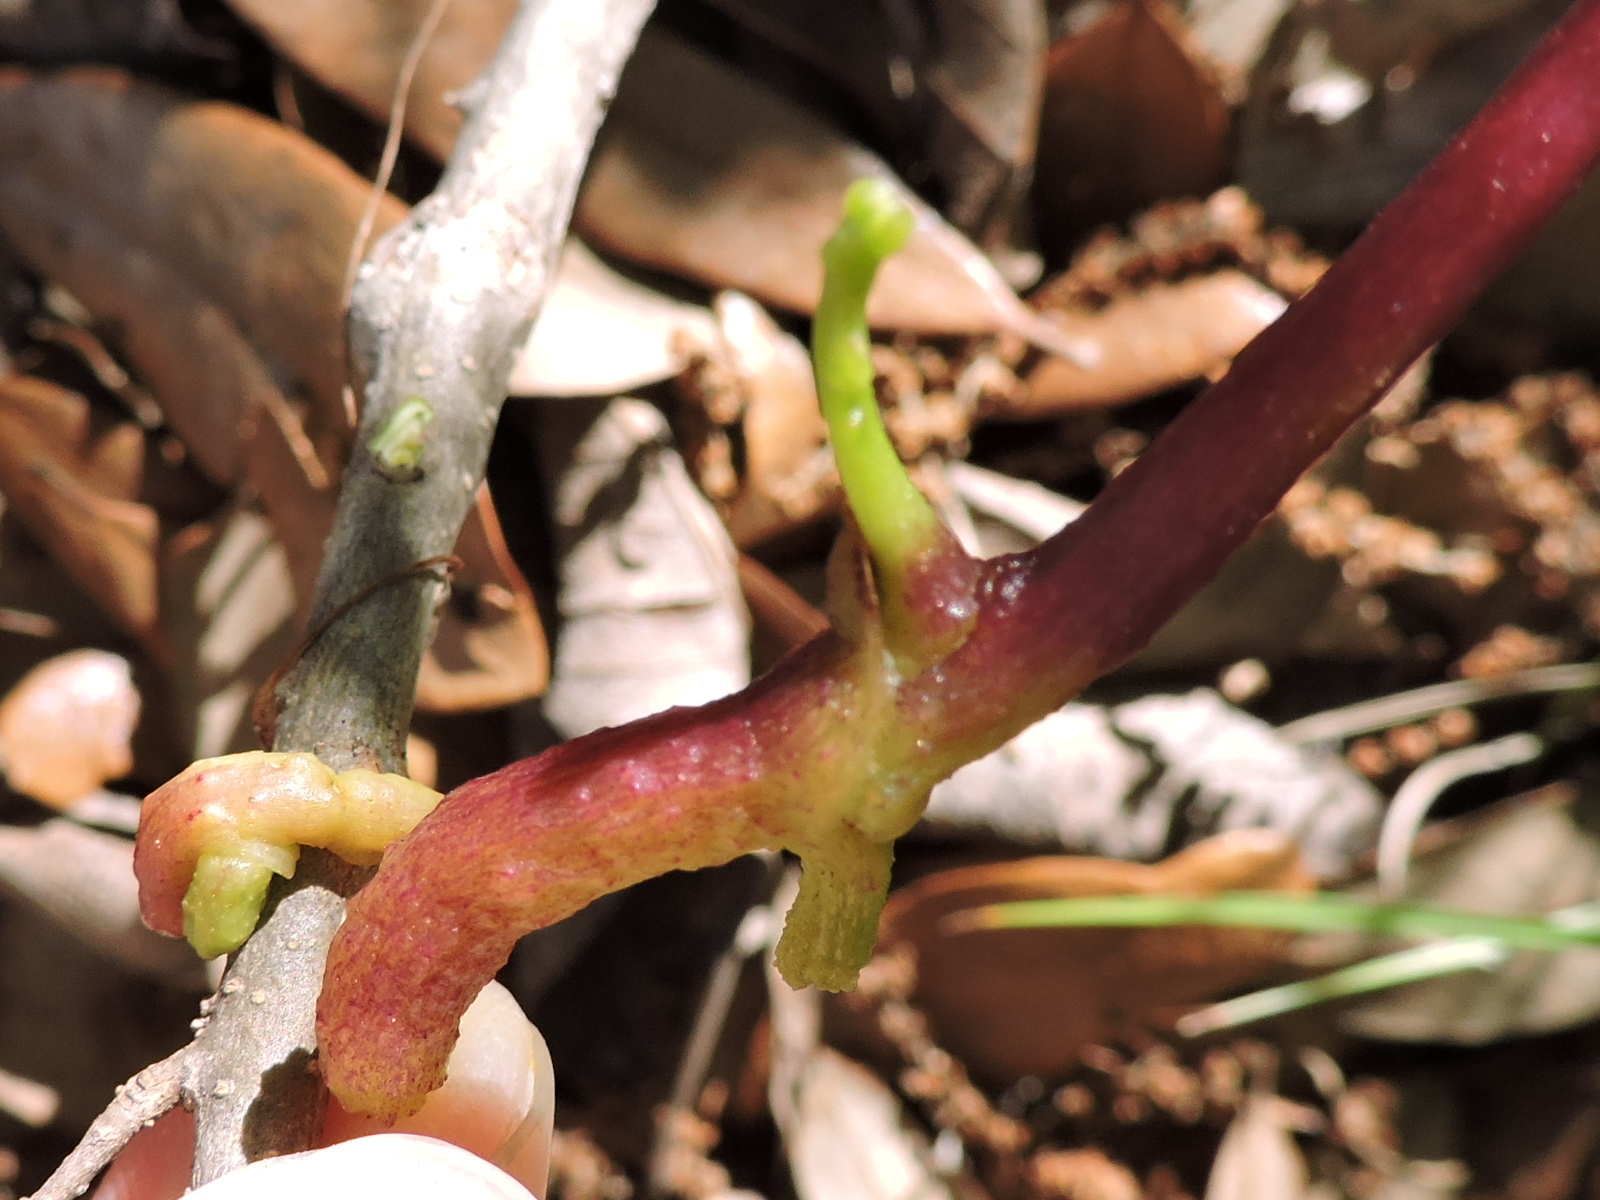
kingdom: Plantae
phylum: Tracheophyta
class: Magnoliopsida
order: Solanales
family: Convolvulaceae
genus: Cuscuta
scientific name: Cuscuta exaltata
